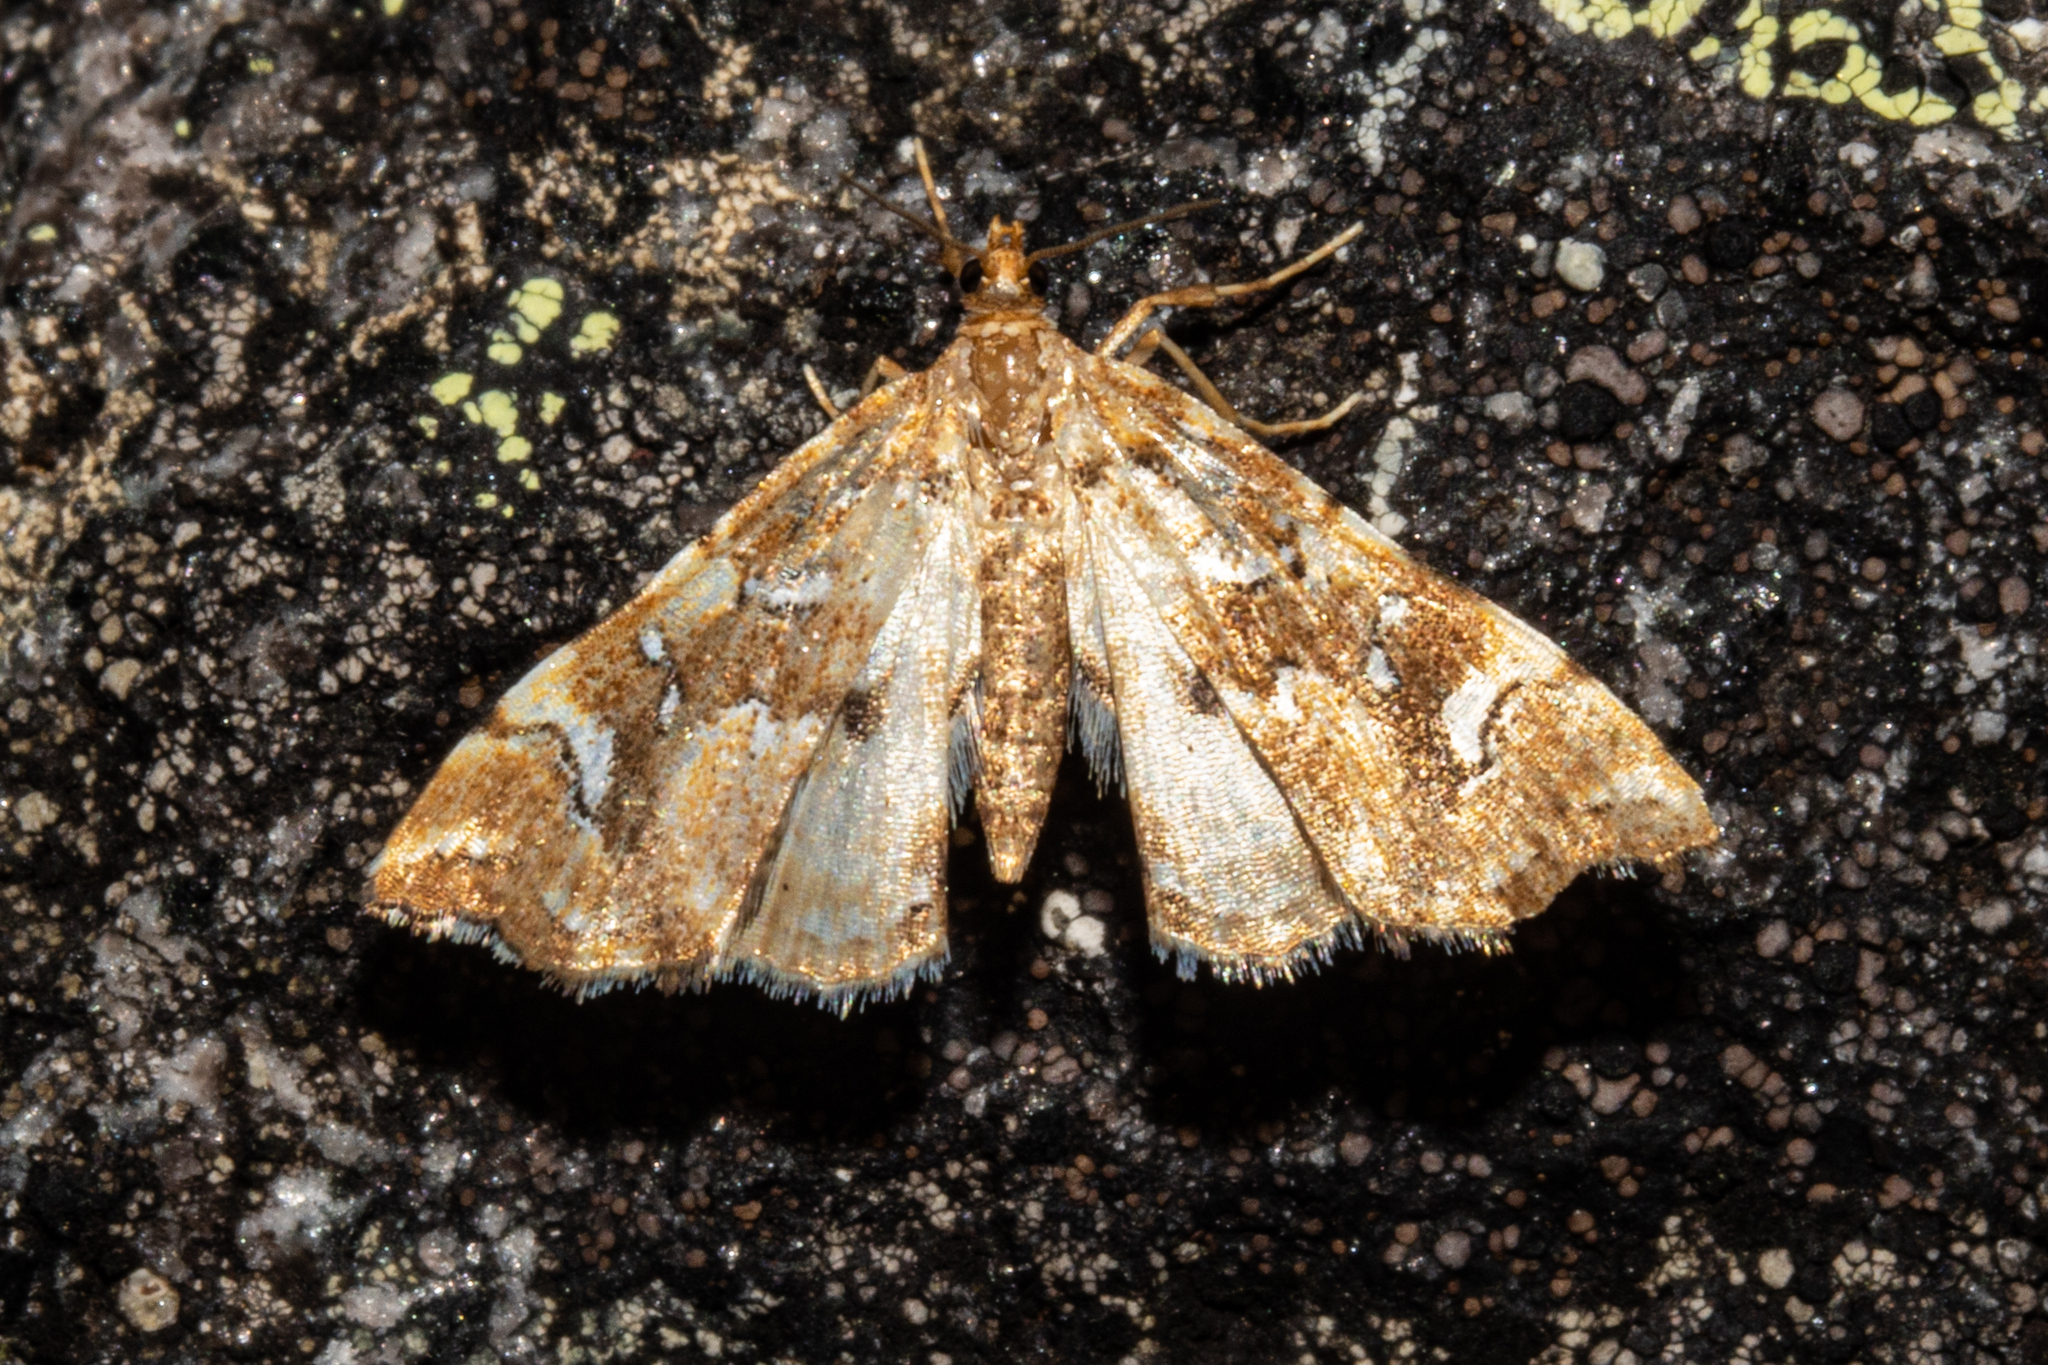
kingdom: Animalia
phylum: Arthropoda
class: Insecta
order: Lepidoptera
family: Pyralidae
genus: Musotima
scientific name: Musotima nitidalis
